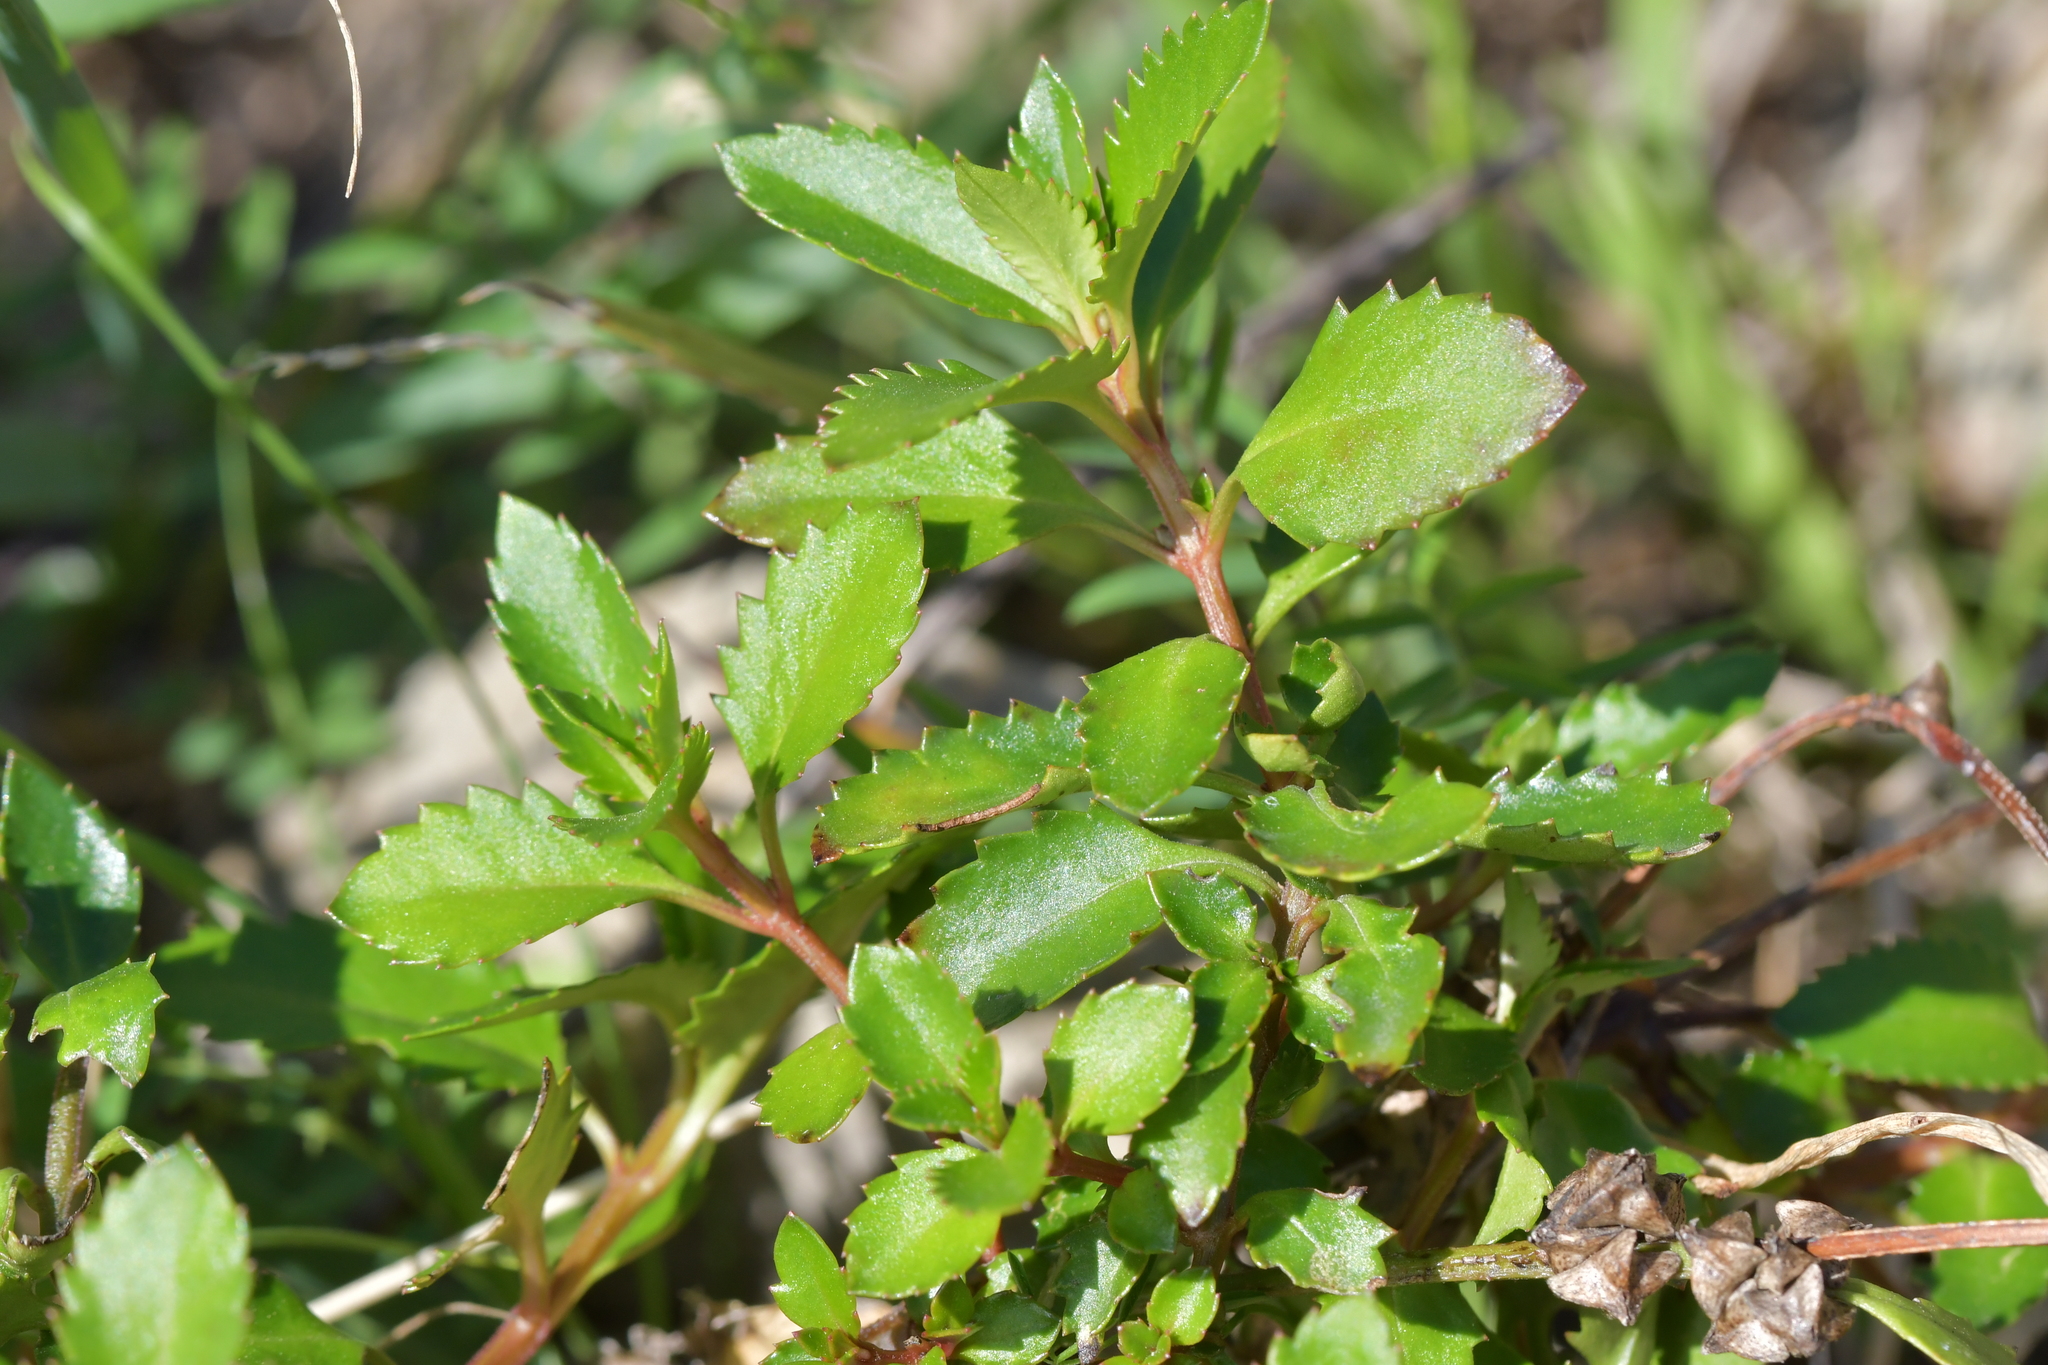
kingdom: Plantae
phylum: Tracheophyta
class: Magnoliopsida
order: Saxifragales
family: Haloragaceae
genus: Haloragis
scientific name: Haloragis erecta
